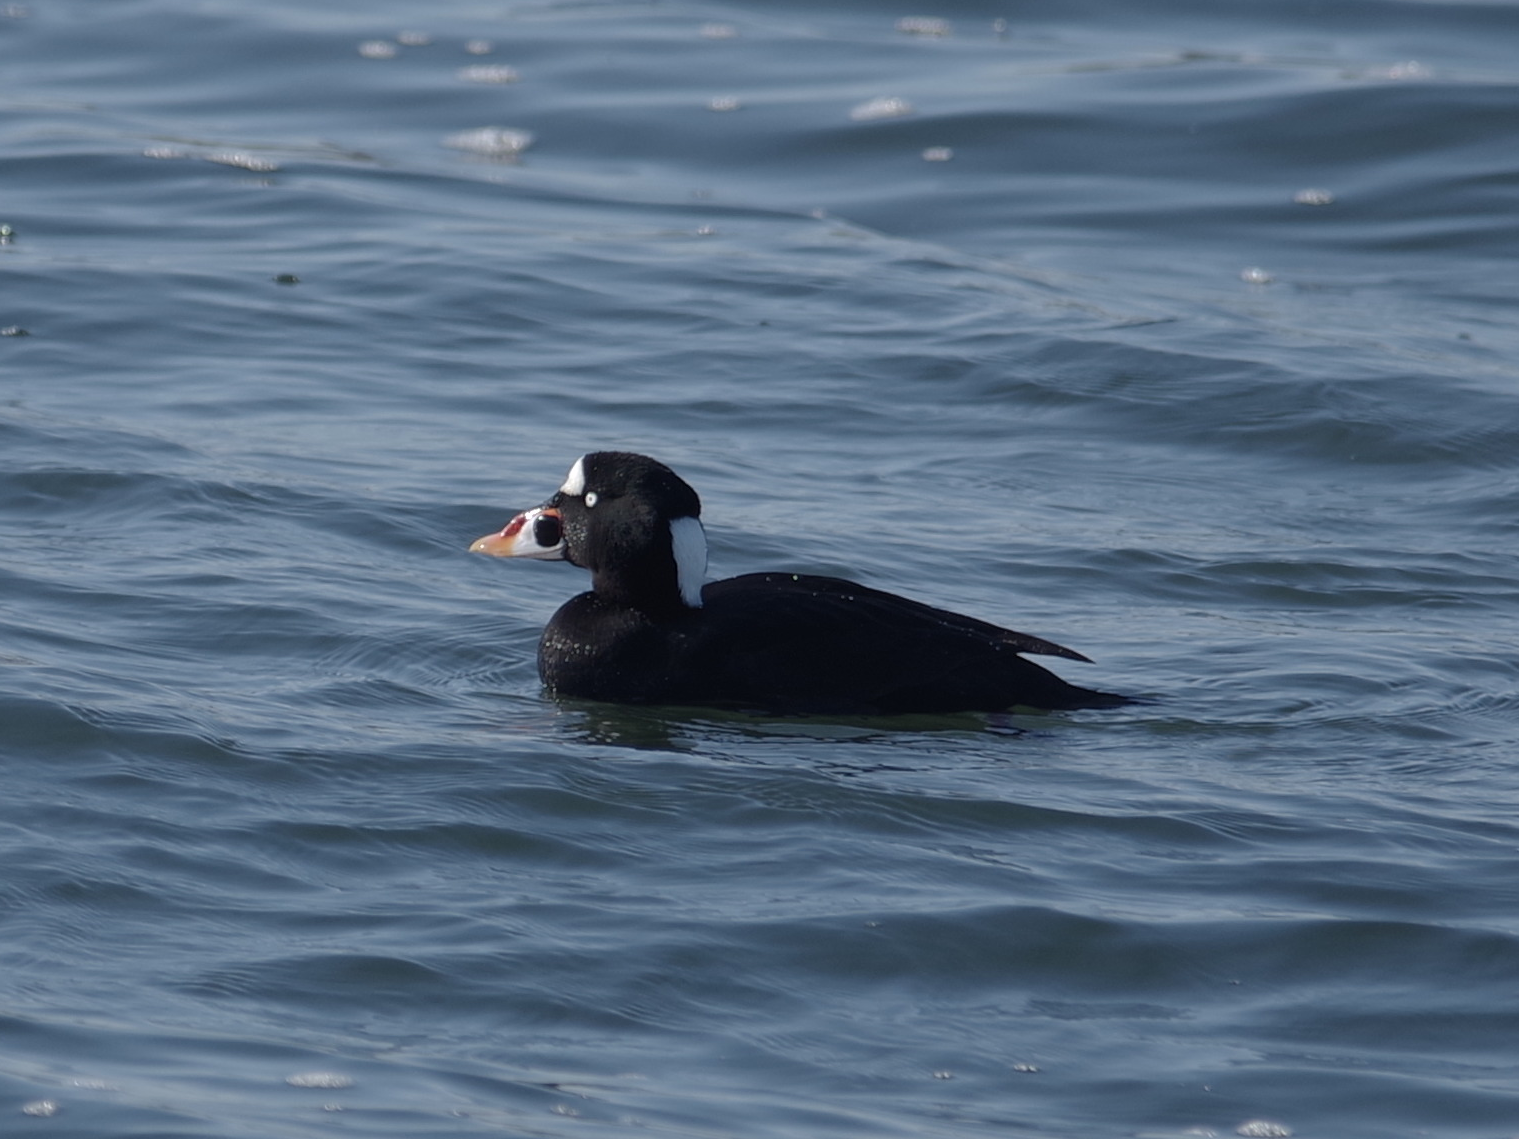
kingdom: Animalia
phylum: Chordata
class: Aves
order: Anseriformes
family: Anatidae
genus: Melanitta
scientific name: Melanitta perspicillata
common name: Surf scoter
